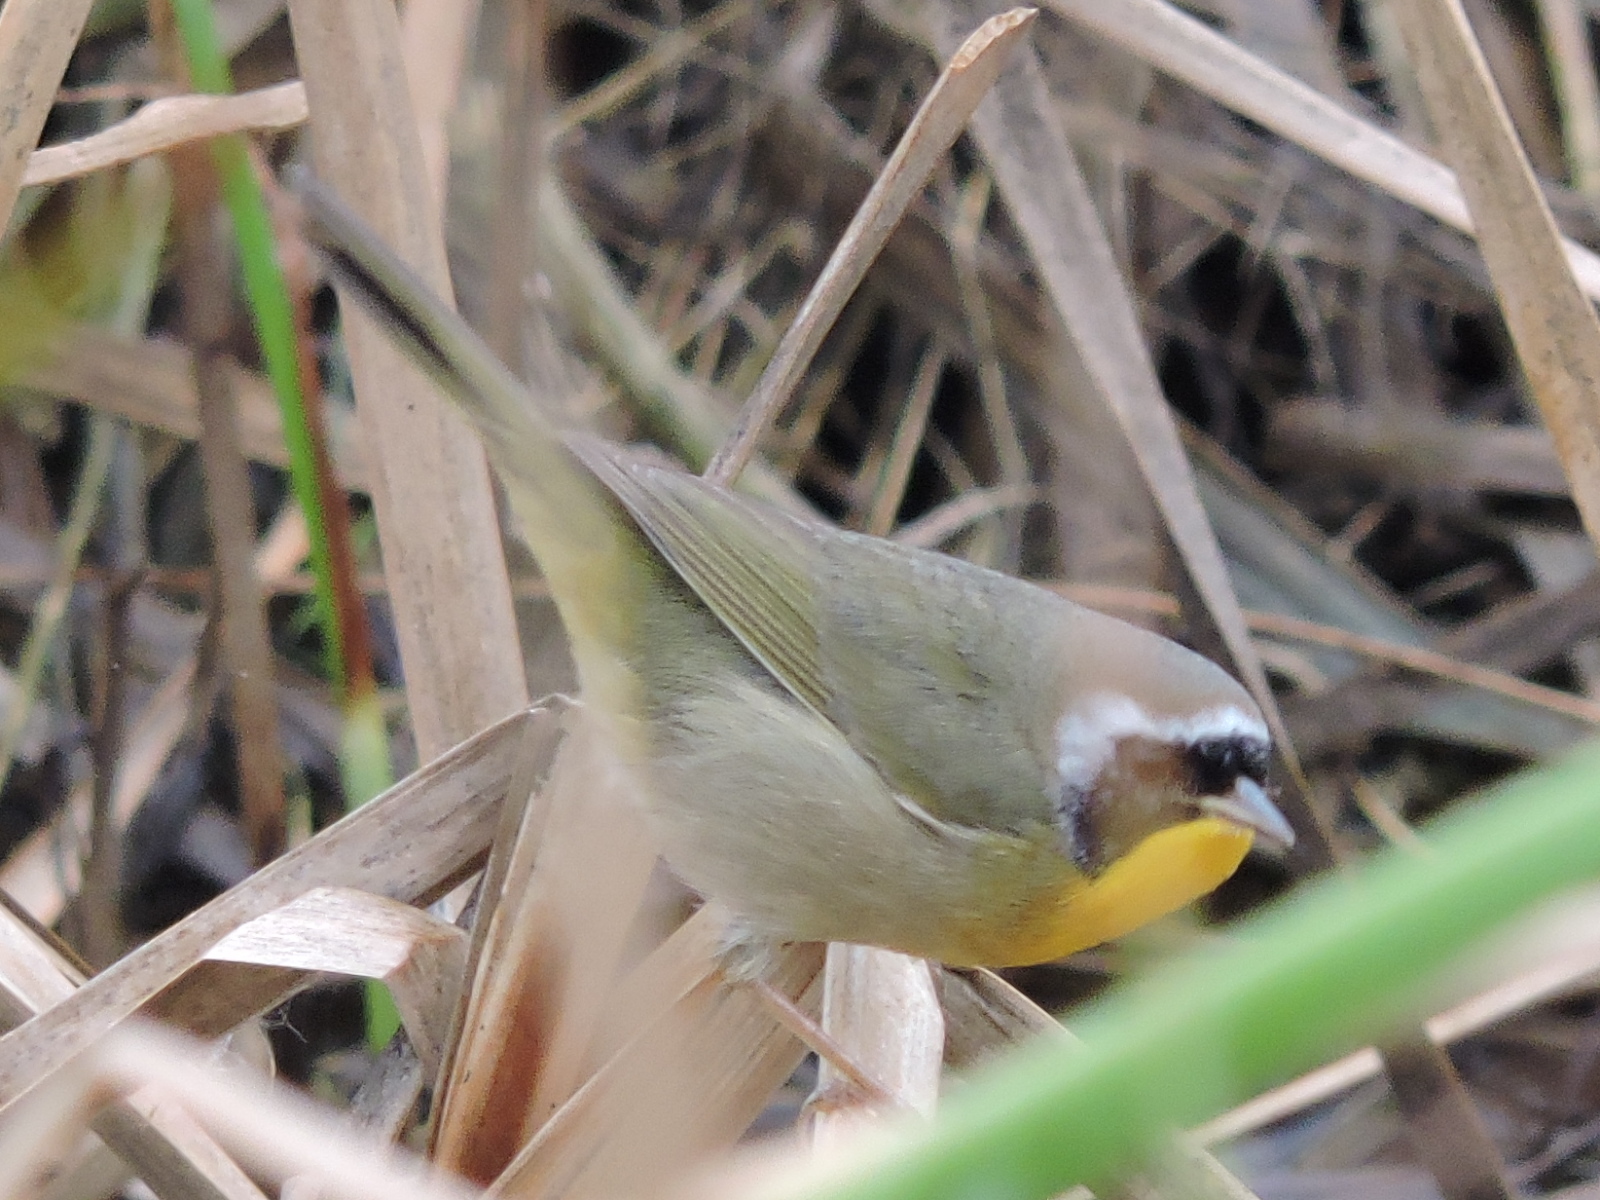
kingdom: Animalia
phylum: Chordata
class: Aves
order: Passeriformes
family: Parulidae
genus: Geothlypis
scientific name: Geothlypis trichas
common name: Common yellowthroat
